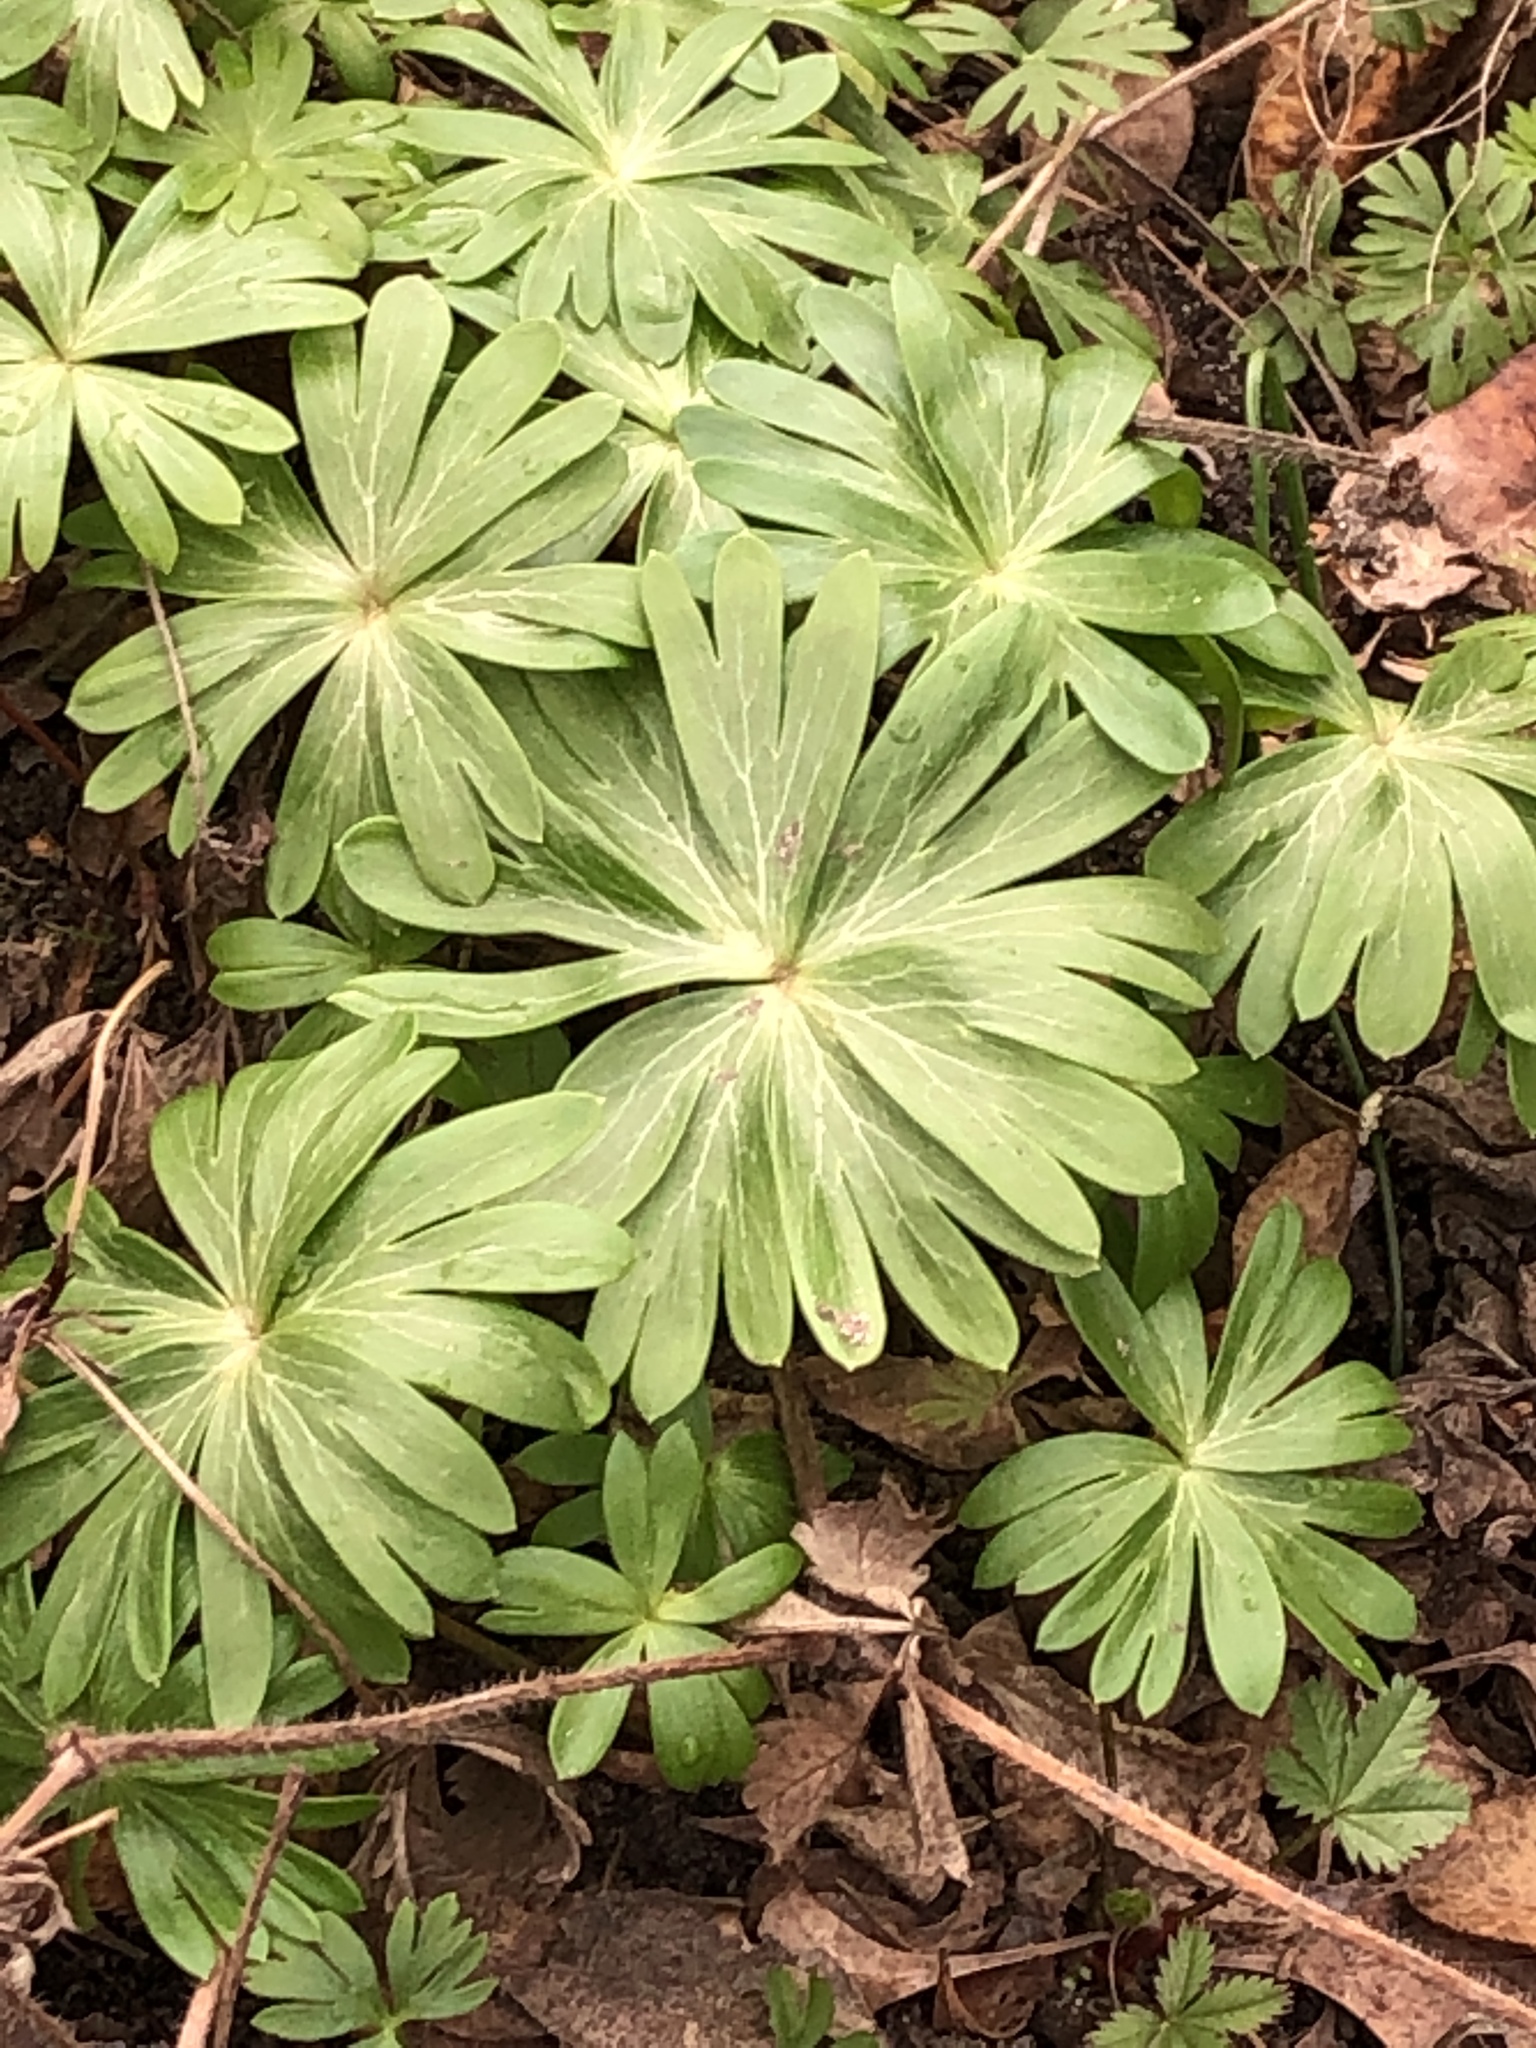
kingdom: Plantae
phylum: Tracheophyta
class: Magnoliopsida
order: Ranunculales
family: Ranunculaceae
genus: Eranthis
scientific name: Eranthis hyemalis
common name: Winter aconite
